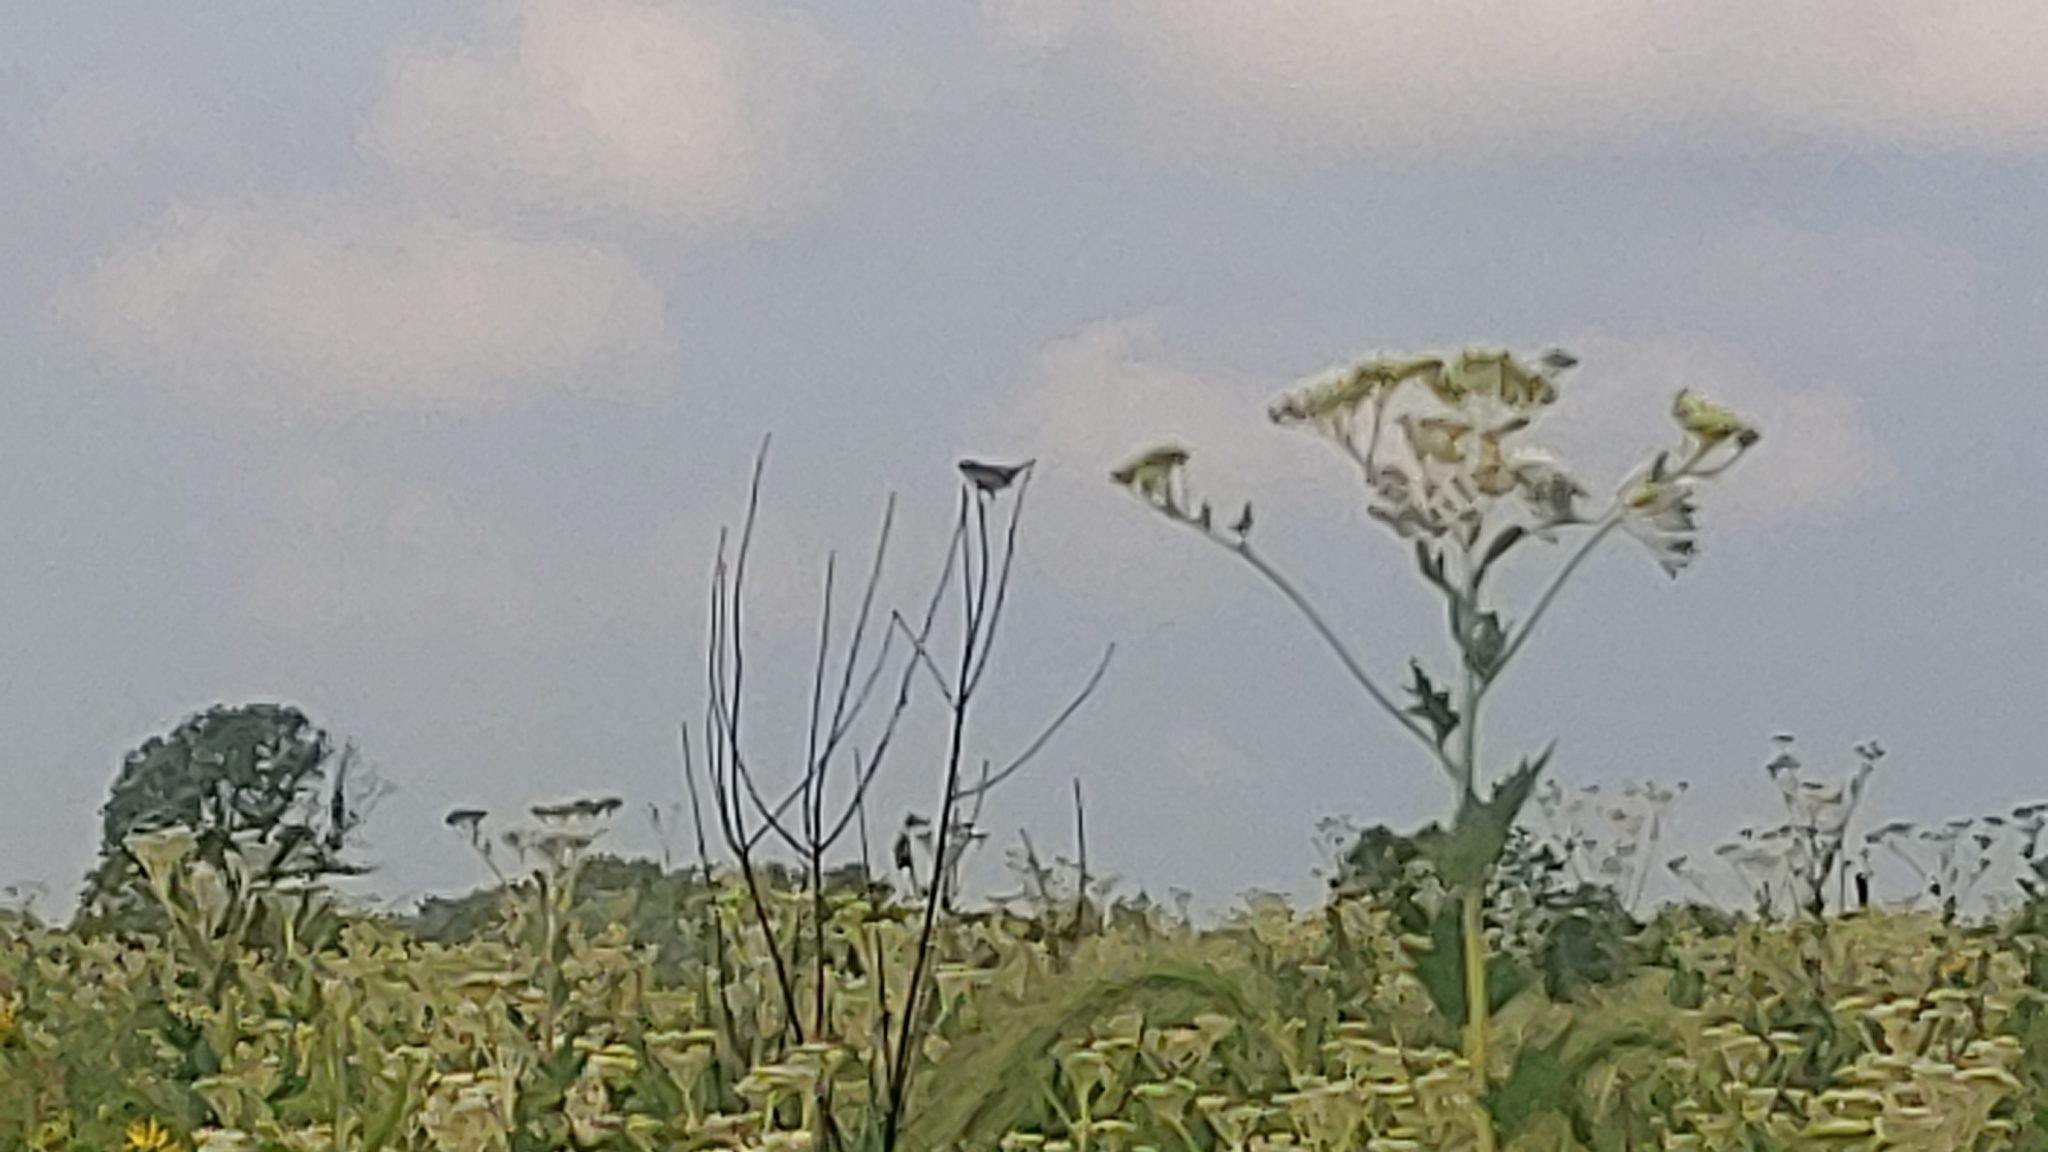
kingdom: Animalia
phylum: Chordata
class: Aves
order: Passeriformes
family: Parulidae
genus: Geothlypis
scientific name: Geothlypis trichas
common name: Common yellowthroat
